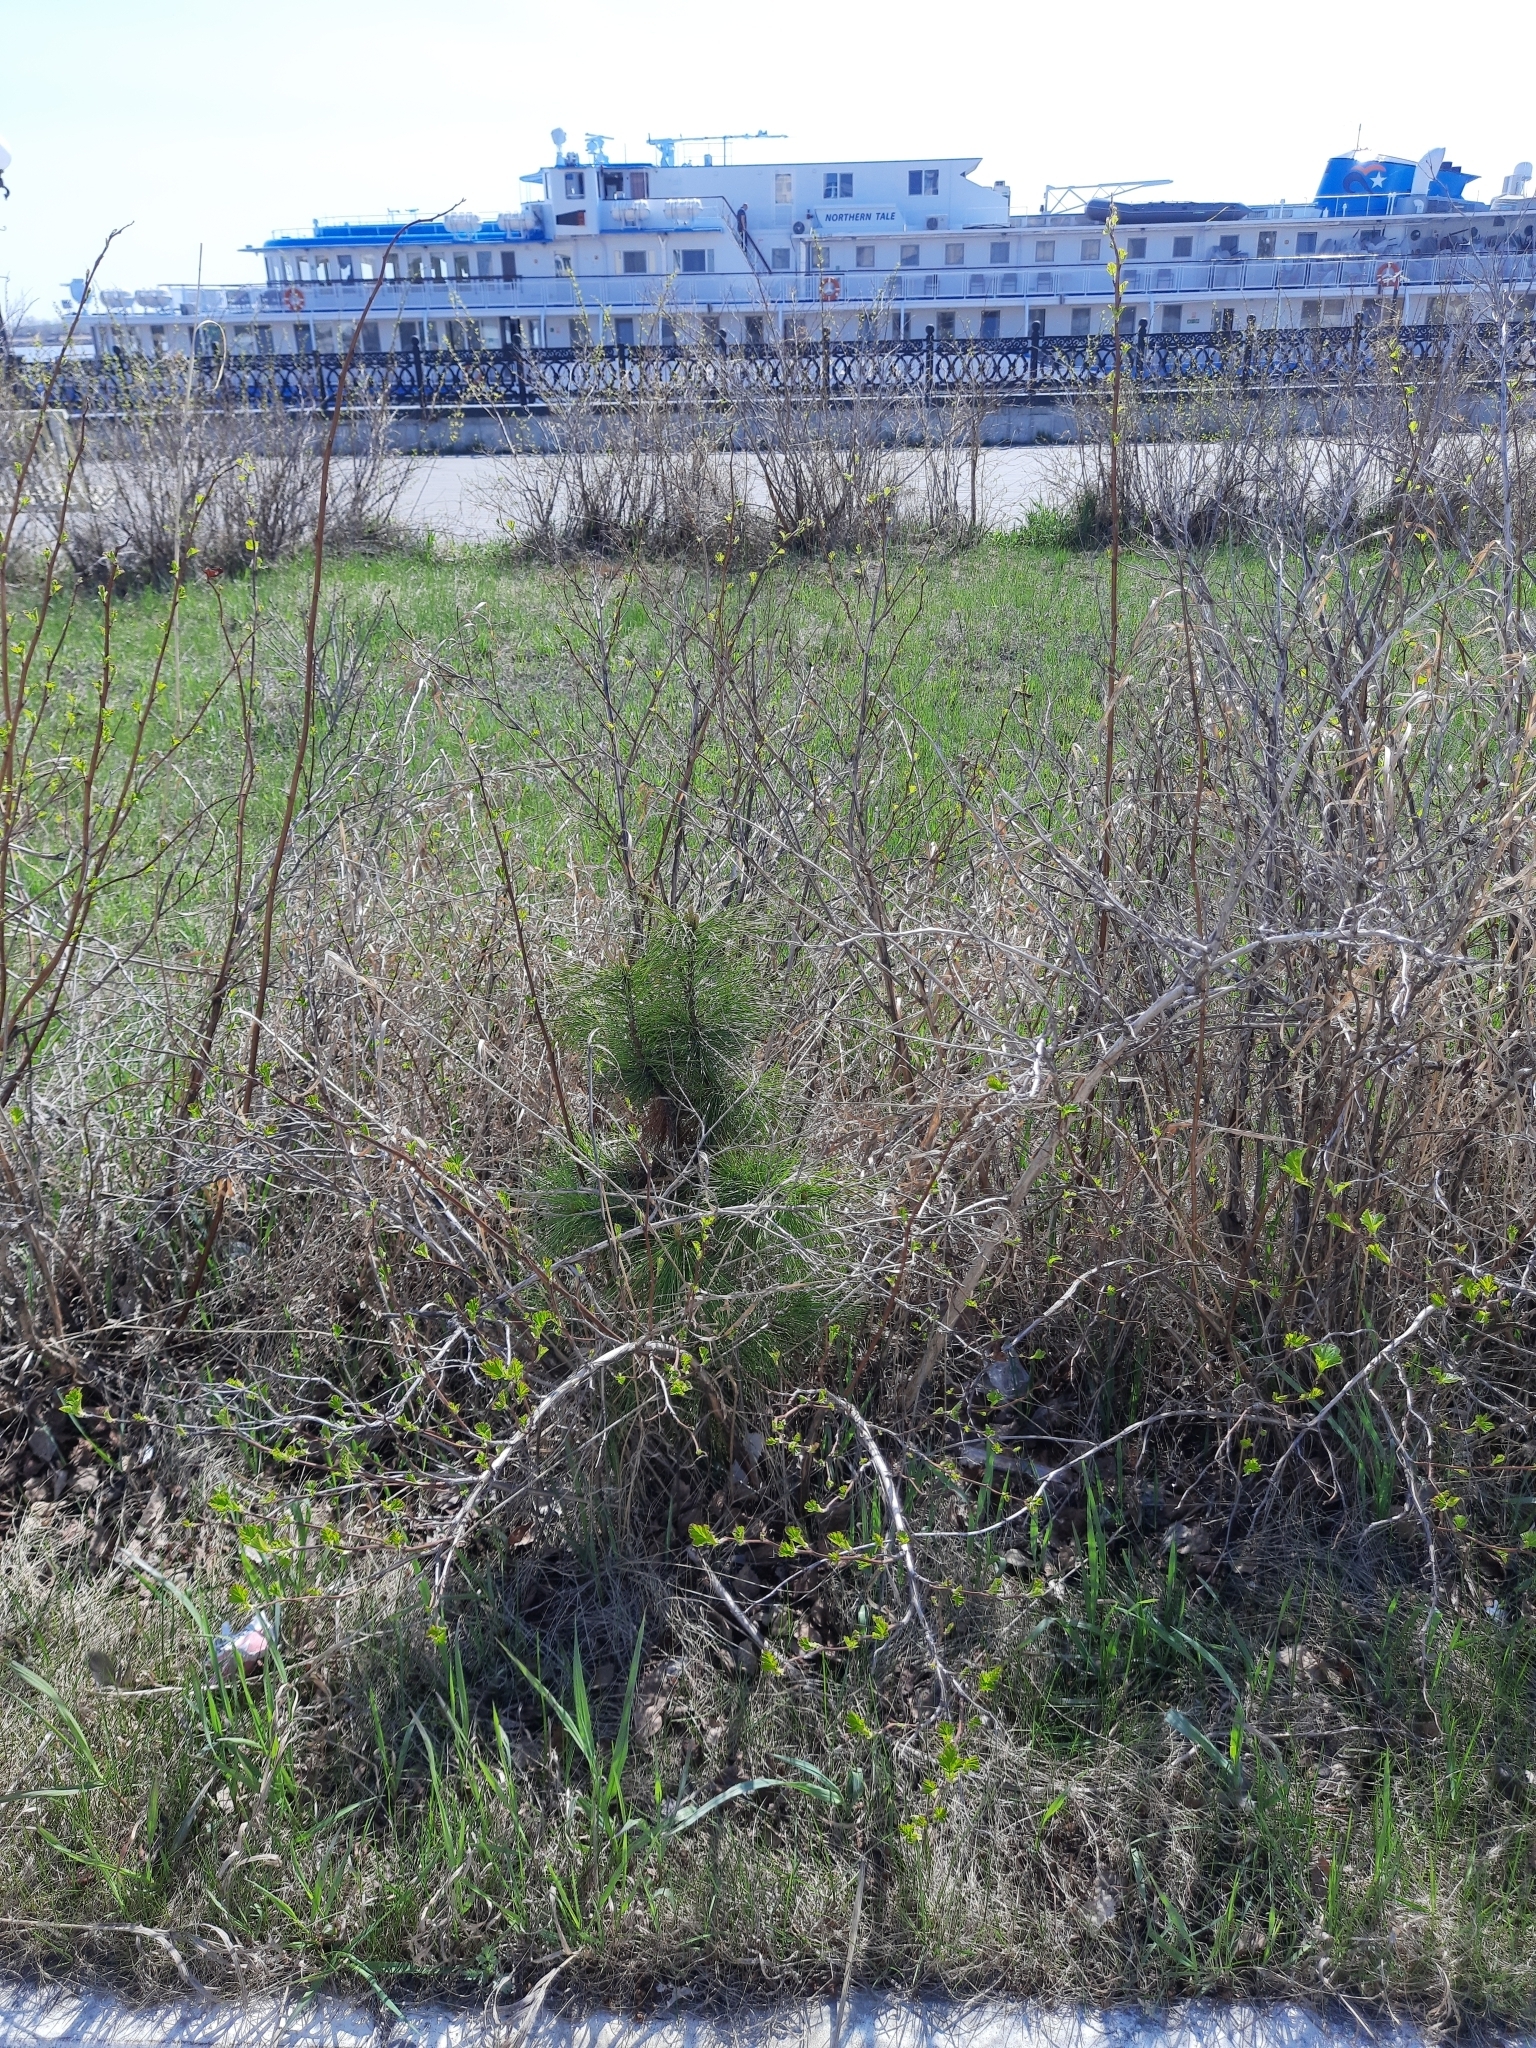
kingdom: Plantae
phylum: Tracheophyta
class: Pinopsida
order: Pinales
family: Pinaceae
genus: Pinus
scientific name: Pinus sibirica
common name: Siberian pine
